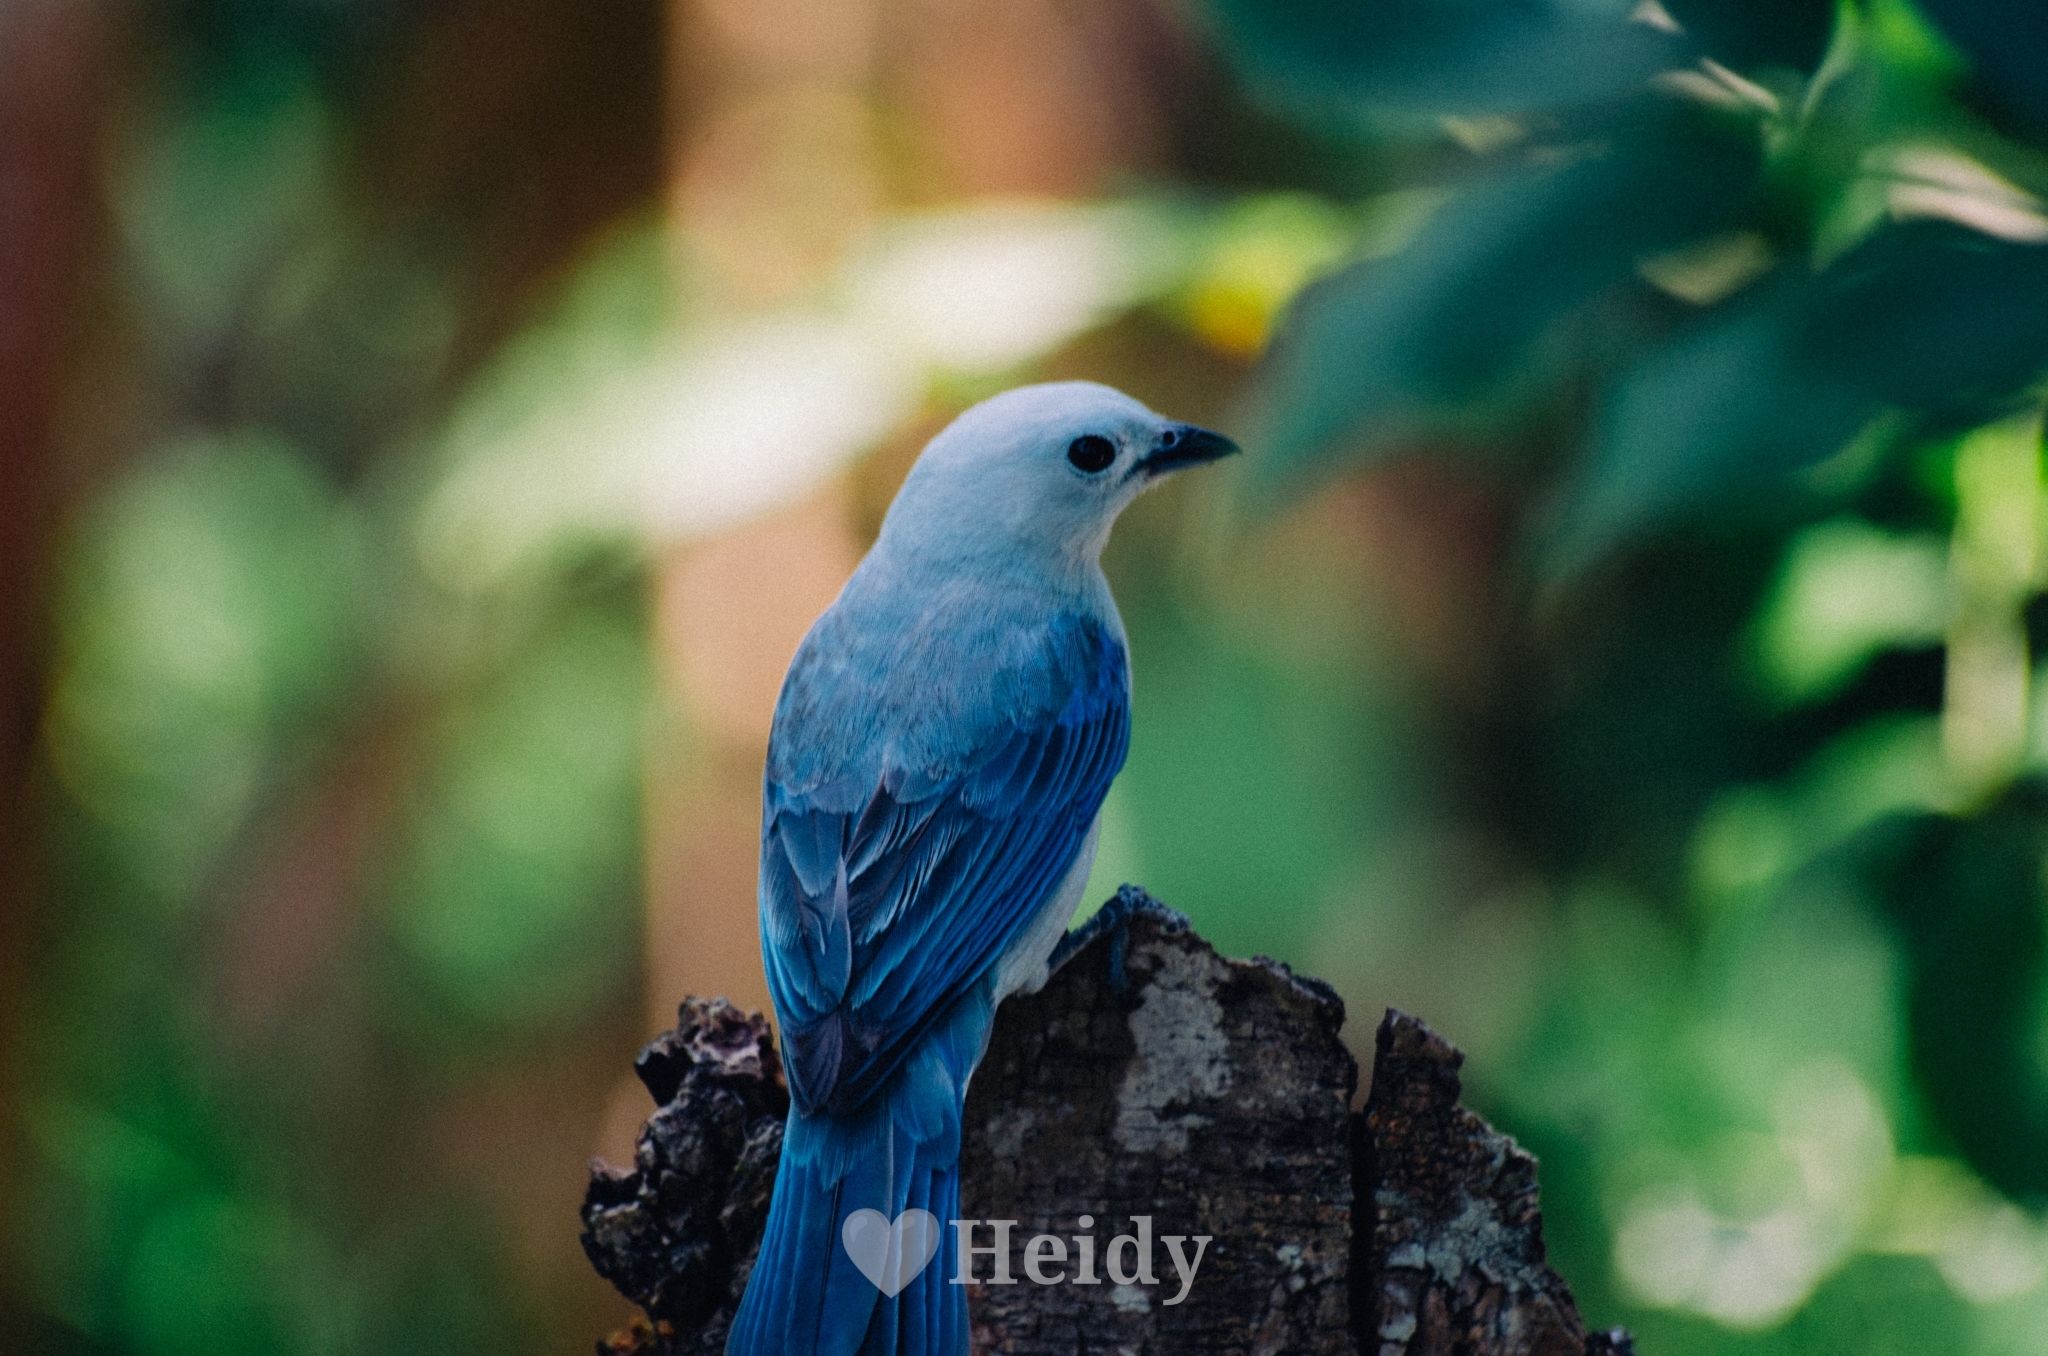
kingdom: Animalia
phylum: Chordata
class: Aves
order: Passeriformes
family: Thraupidae
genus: Thraupis
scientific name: Thraupis episcopus
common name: Blue-grey tanager
